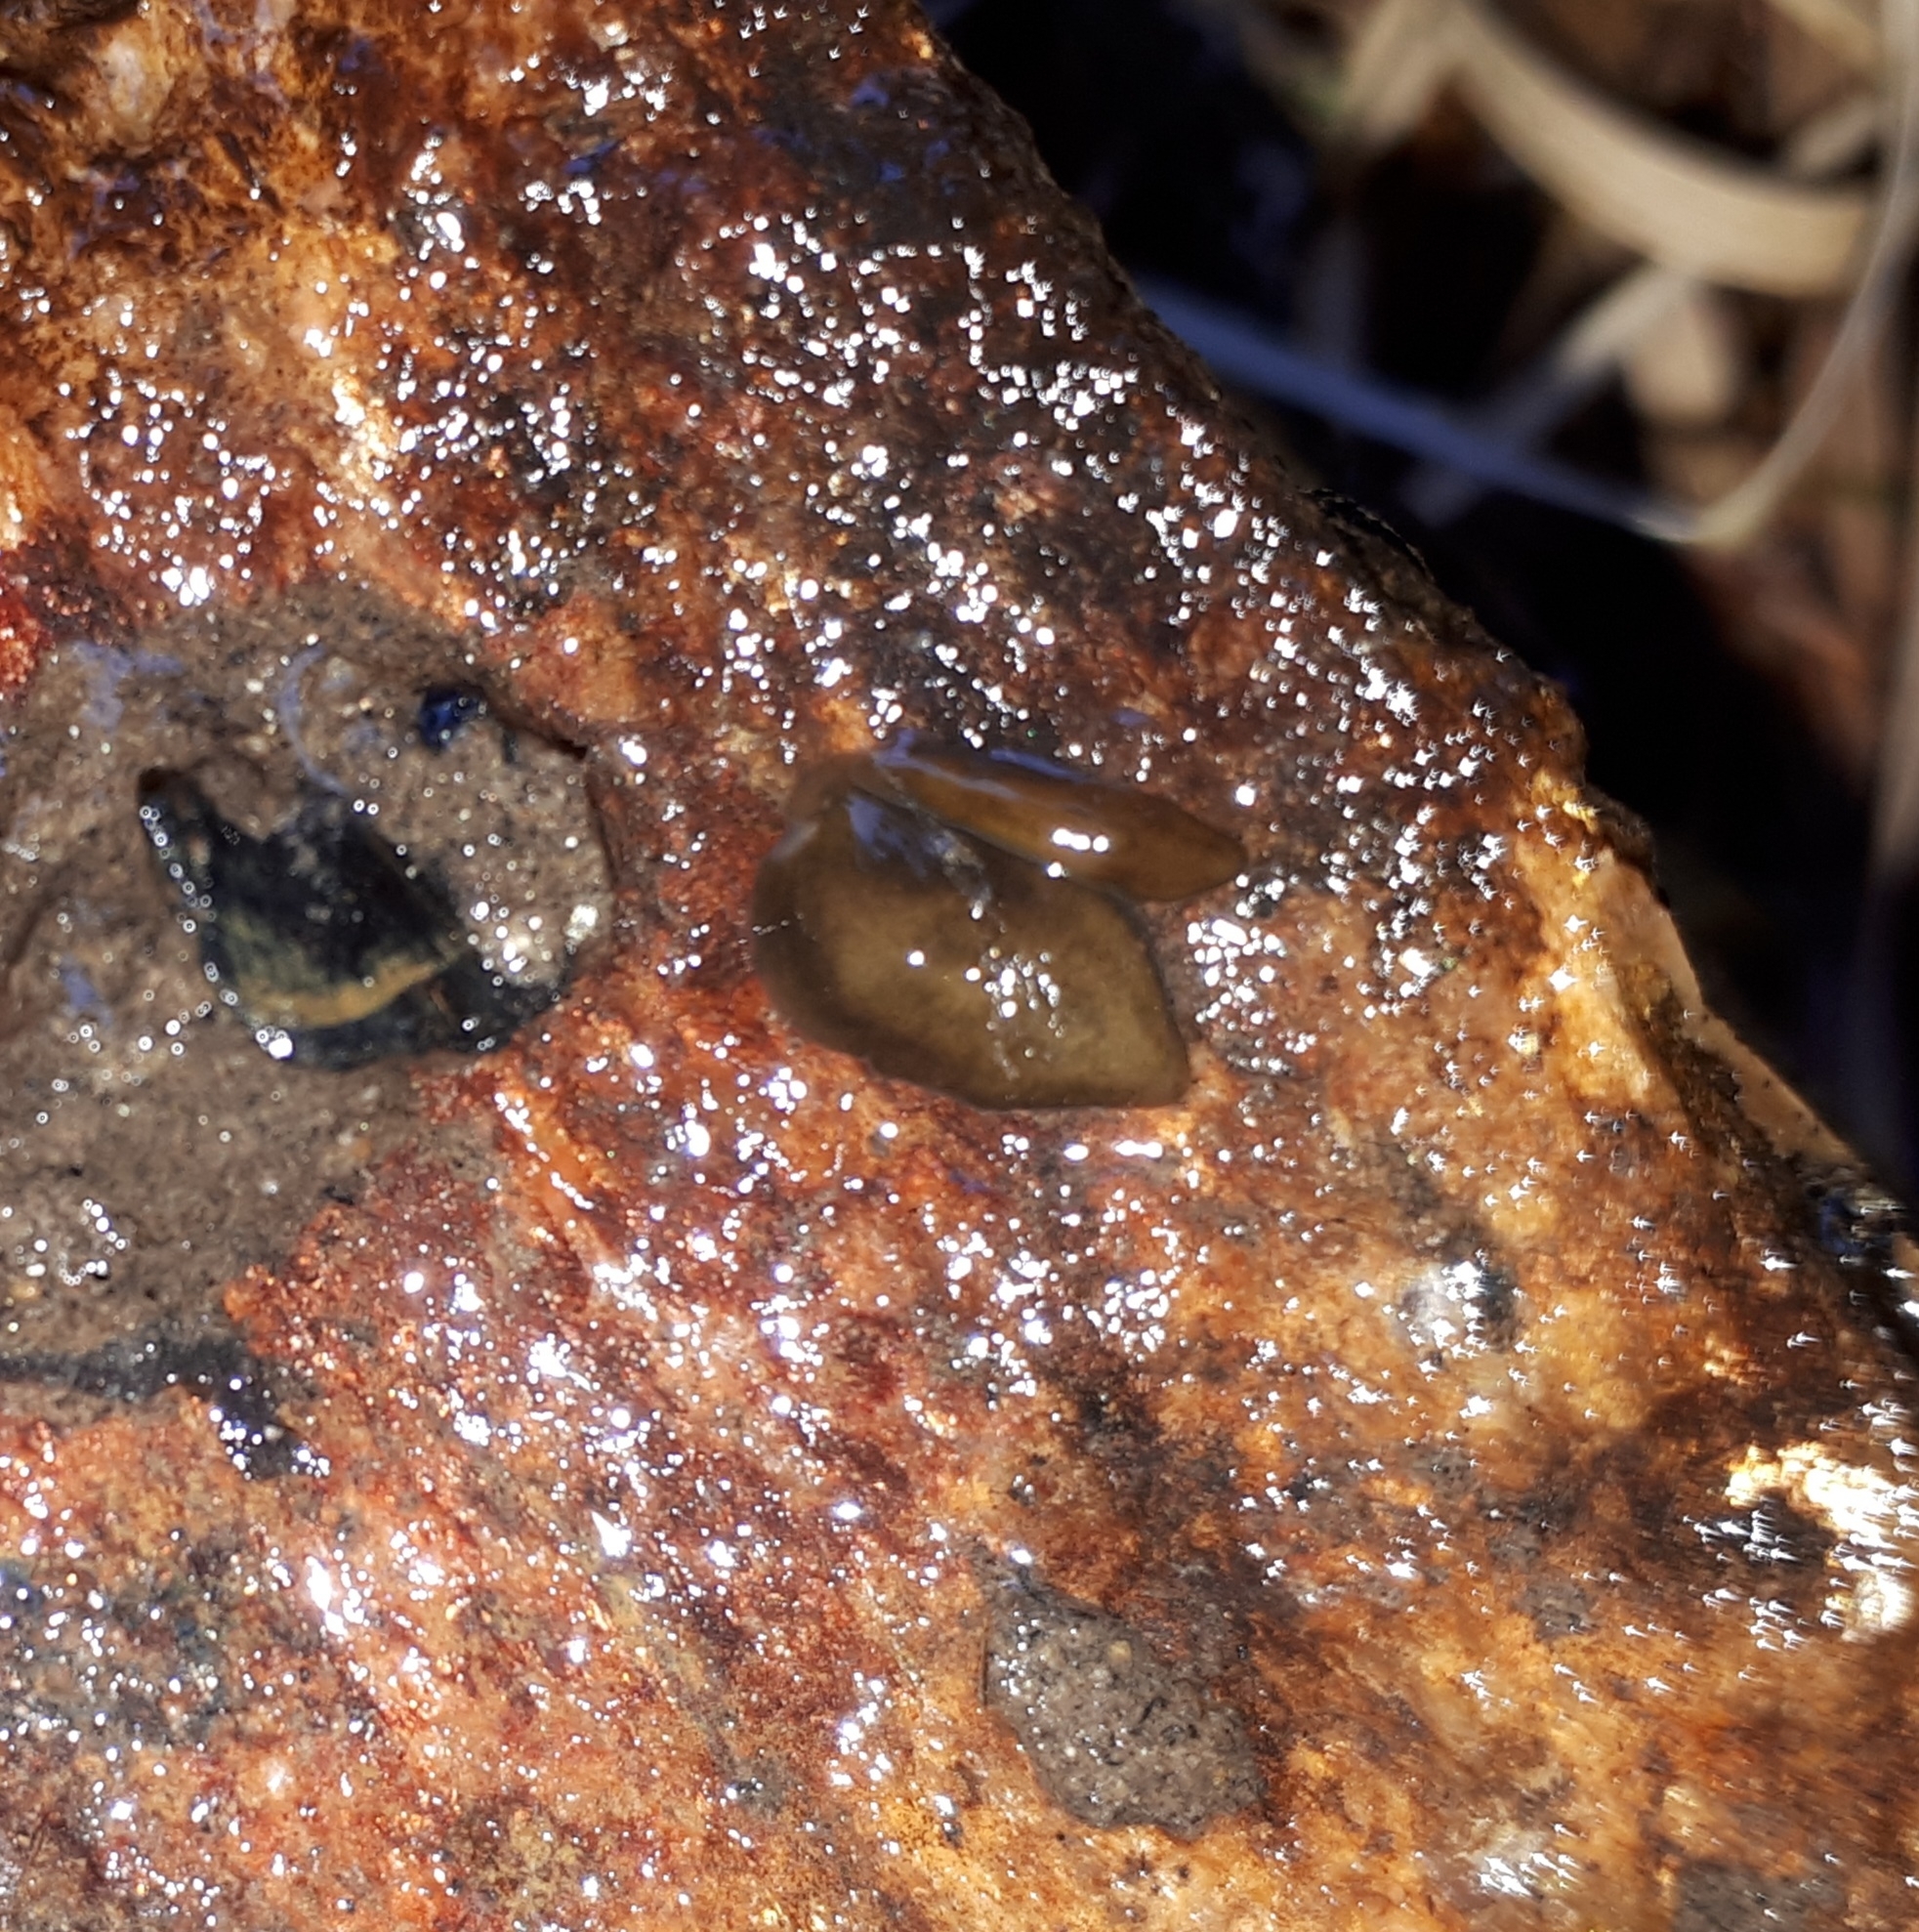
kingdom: Animalia
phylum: Platyhelminthes
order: Tricladida
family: Dugesiidae
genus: Dugesia
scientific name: Dugesia gonocephala
